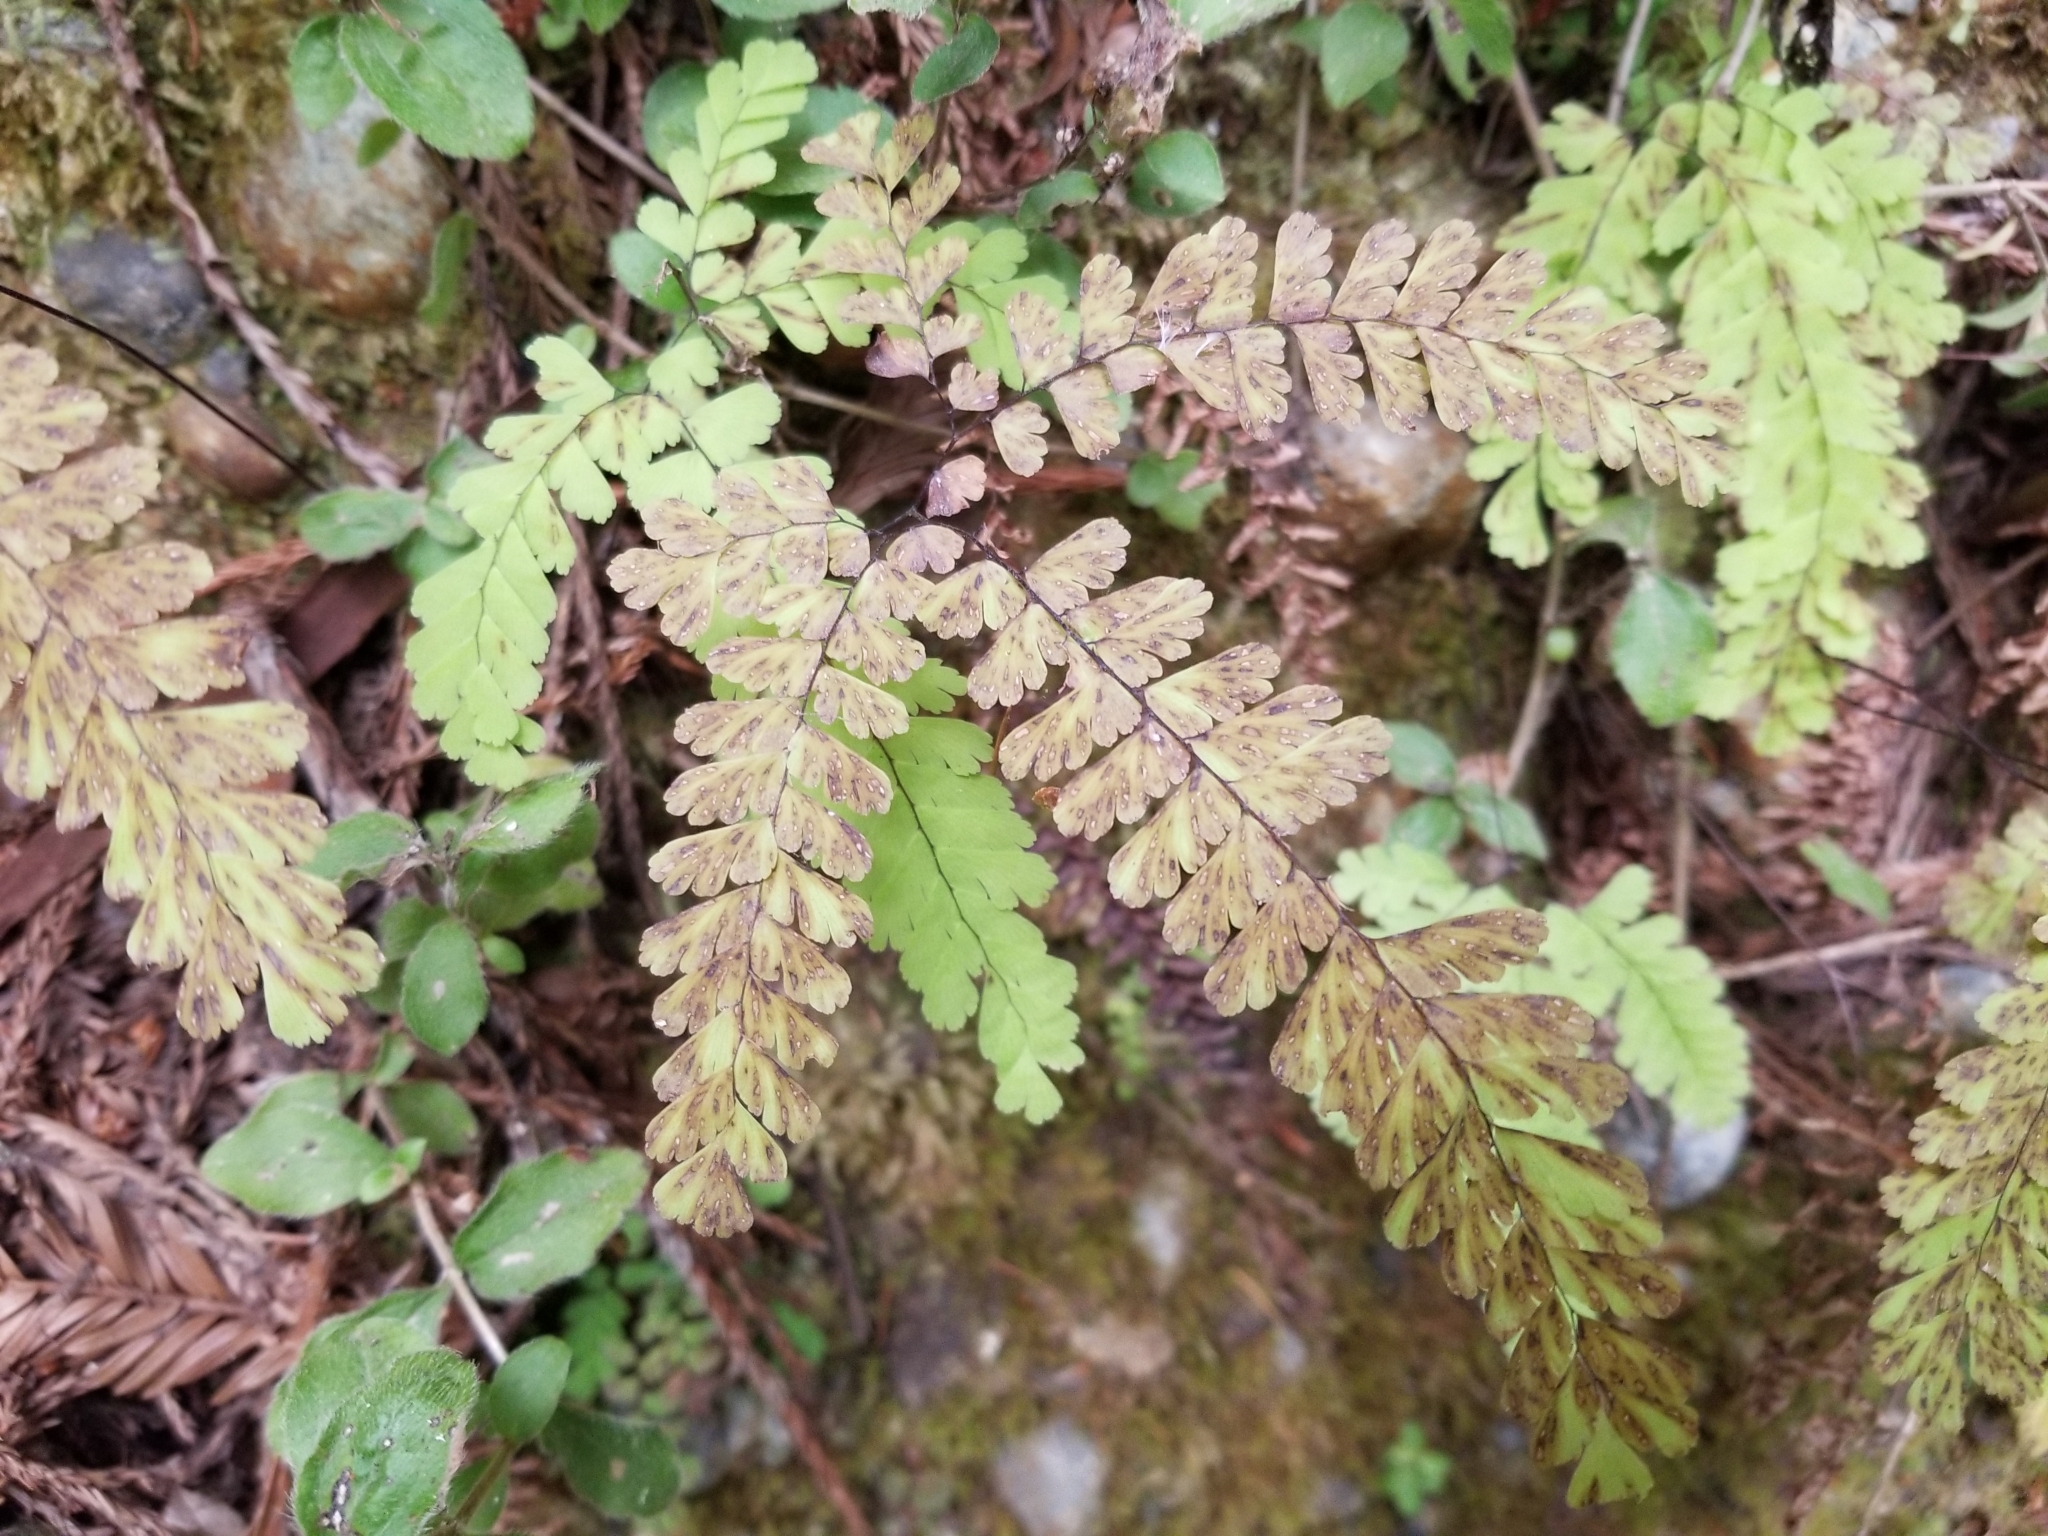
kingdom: Plantae
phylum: Tracheophyta
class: Polypodiopsida
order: Polypodiales
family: Pteridaceae
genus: Adiantum
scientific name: Adiantum aleuticum
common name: Aleutian maidenhair fern
